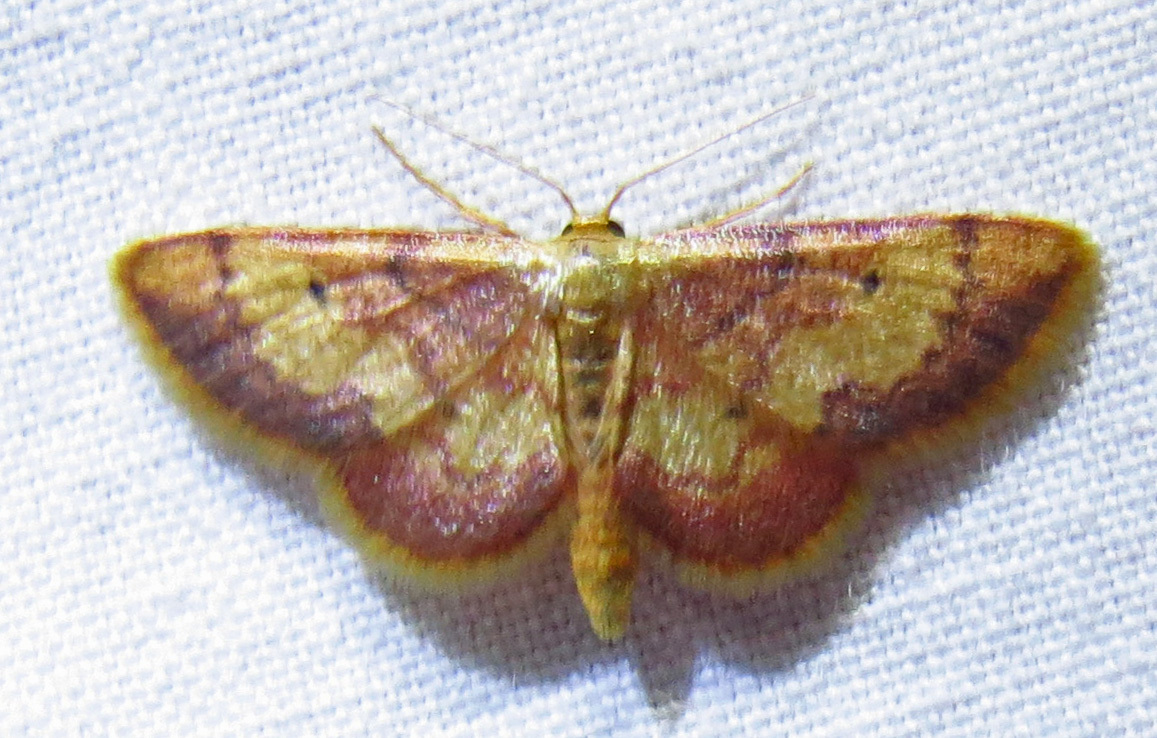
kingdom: Animalia
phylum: Arthropoda
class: Insecta
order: Lepidoptera
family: Geometridae
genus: Idaea
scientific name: Idaea demissaria
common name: Red-bordered wave
